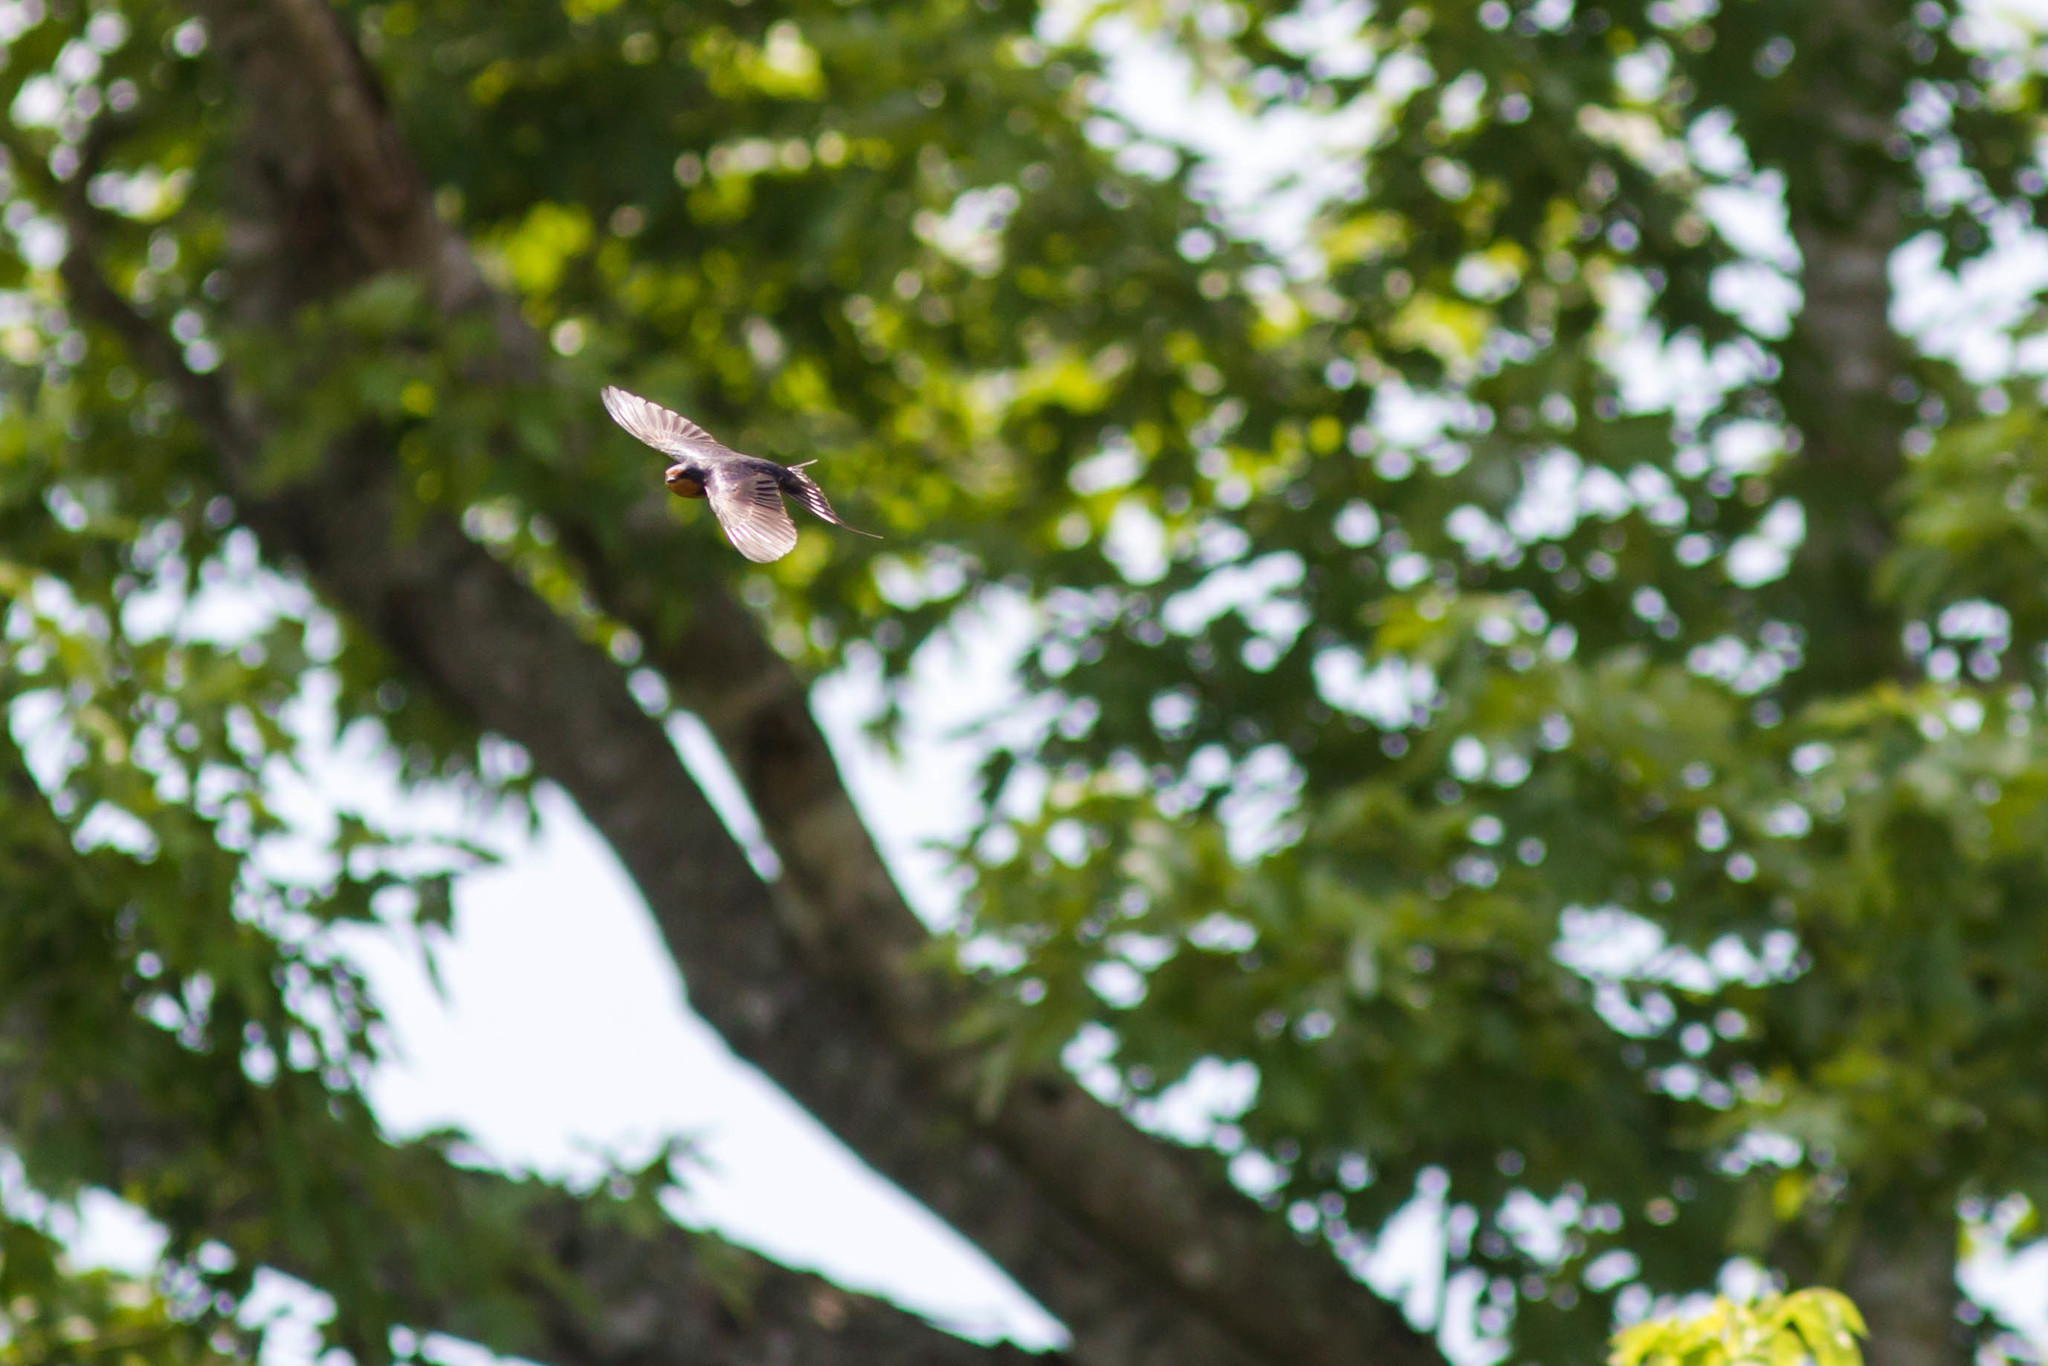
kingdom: Animalia
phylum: Chordata
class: Aves
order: Passeriformes
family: Hirundinidae
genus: Hirundo
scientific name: Hirundo rustica
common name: Barn swallow
